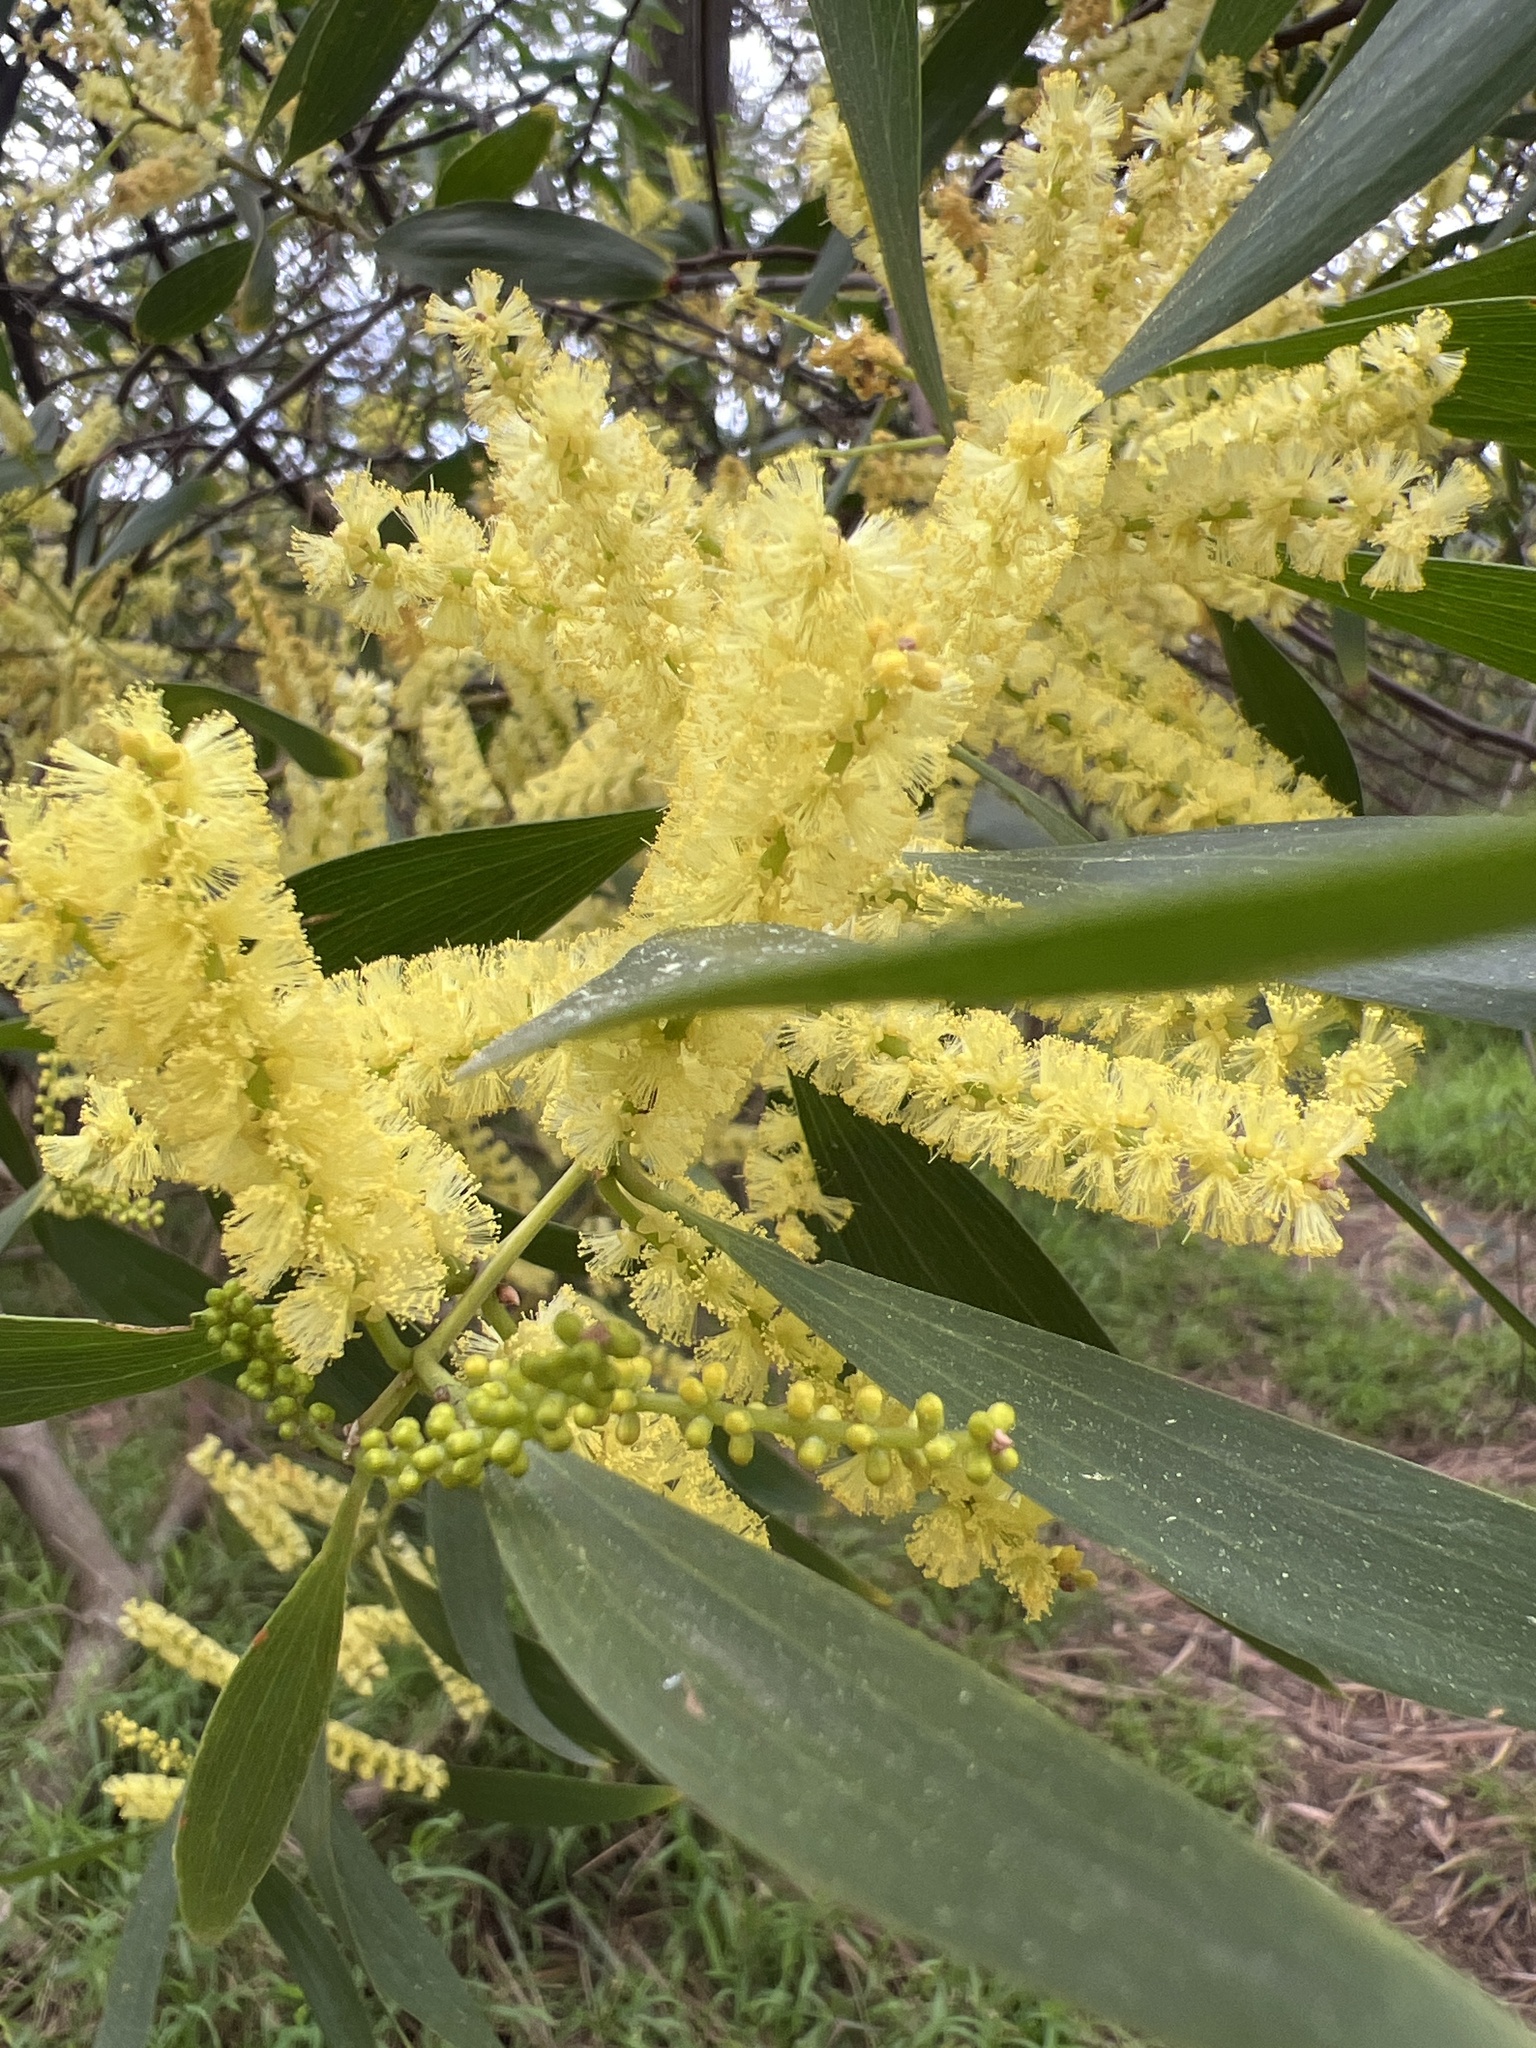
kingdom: Plantae
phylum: Tracheophyta
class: Magnoliopsida
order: Fabales
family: Fabaceae
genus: Acacia
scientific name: Acacia longifolia
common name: Sydney golden wattle
